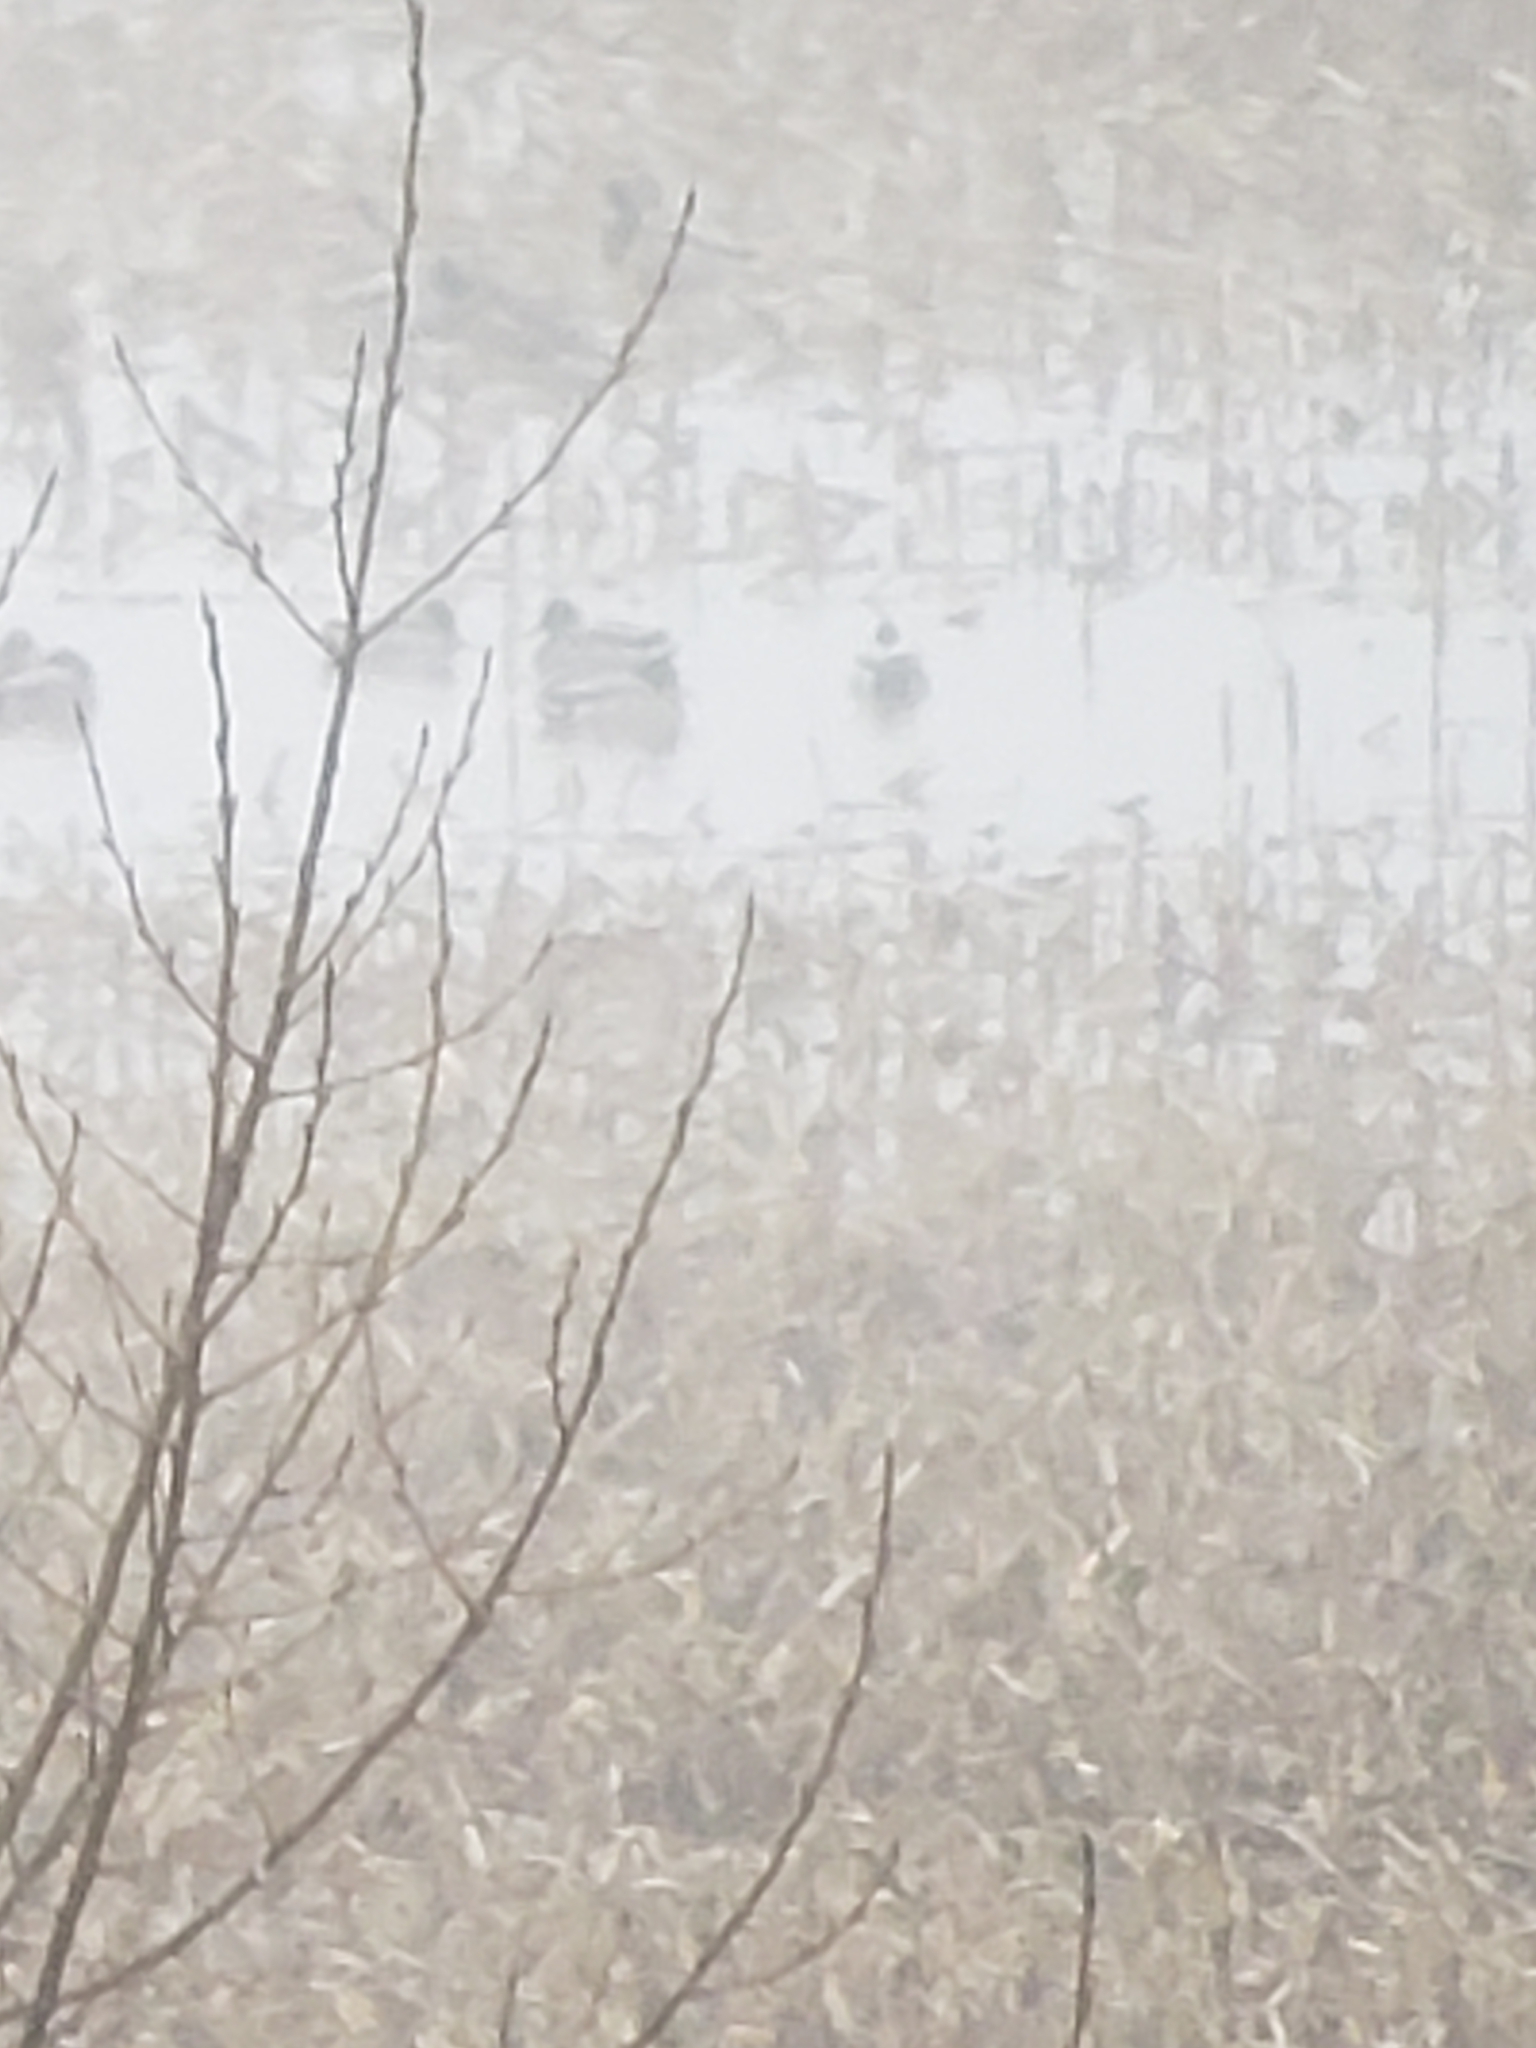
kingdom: Animalia
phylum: Chordata
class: Aves
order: Anseriformes
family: Anatidae
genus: Anas
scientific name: Anas platyrhynchos
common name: Mallard
